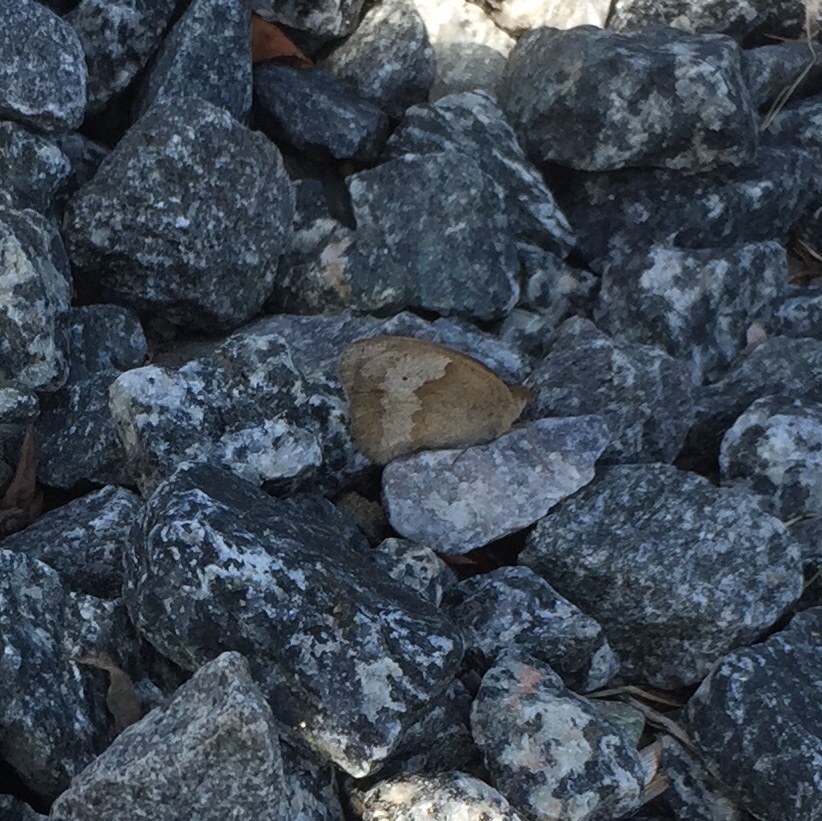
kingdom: Animalia
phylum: Arthropoda
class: Insecta
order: Lepidoptera
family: Nymphalidae
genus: Maniola
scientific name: Maniola jurtina
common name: Meadow brown
